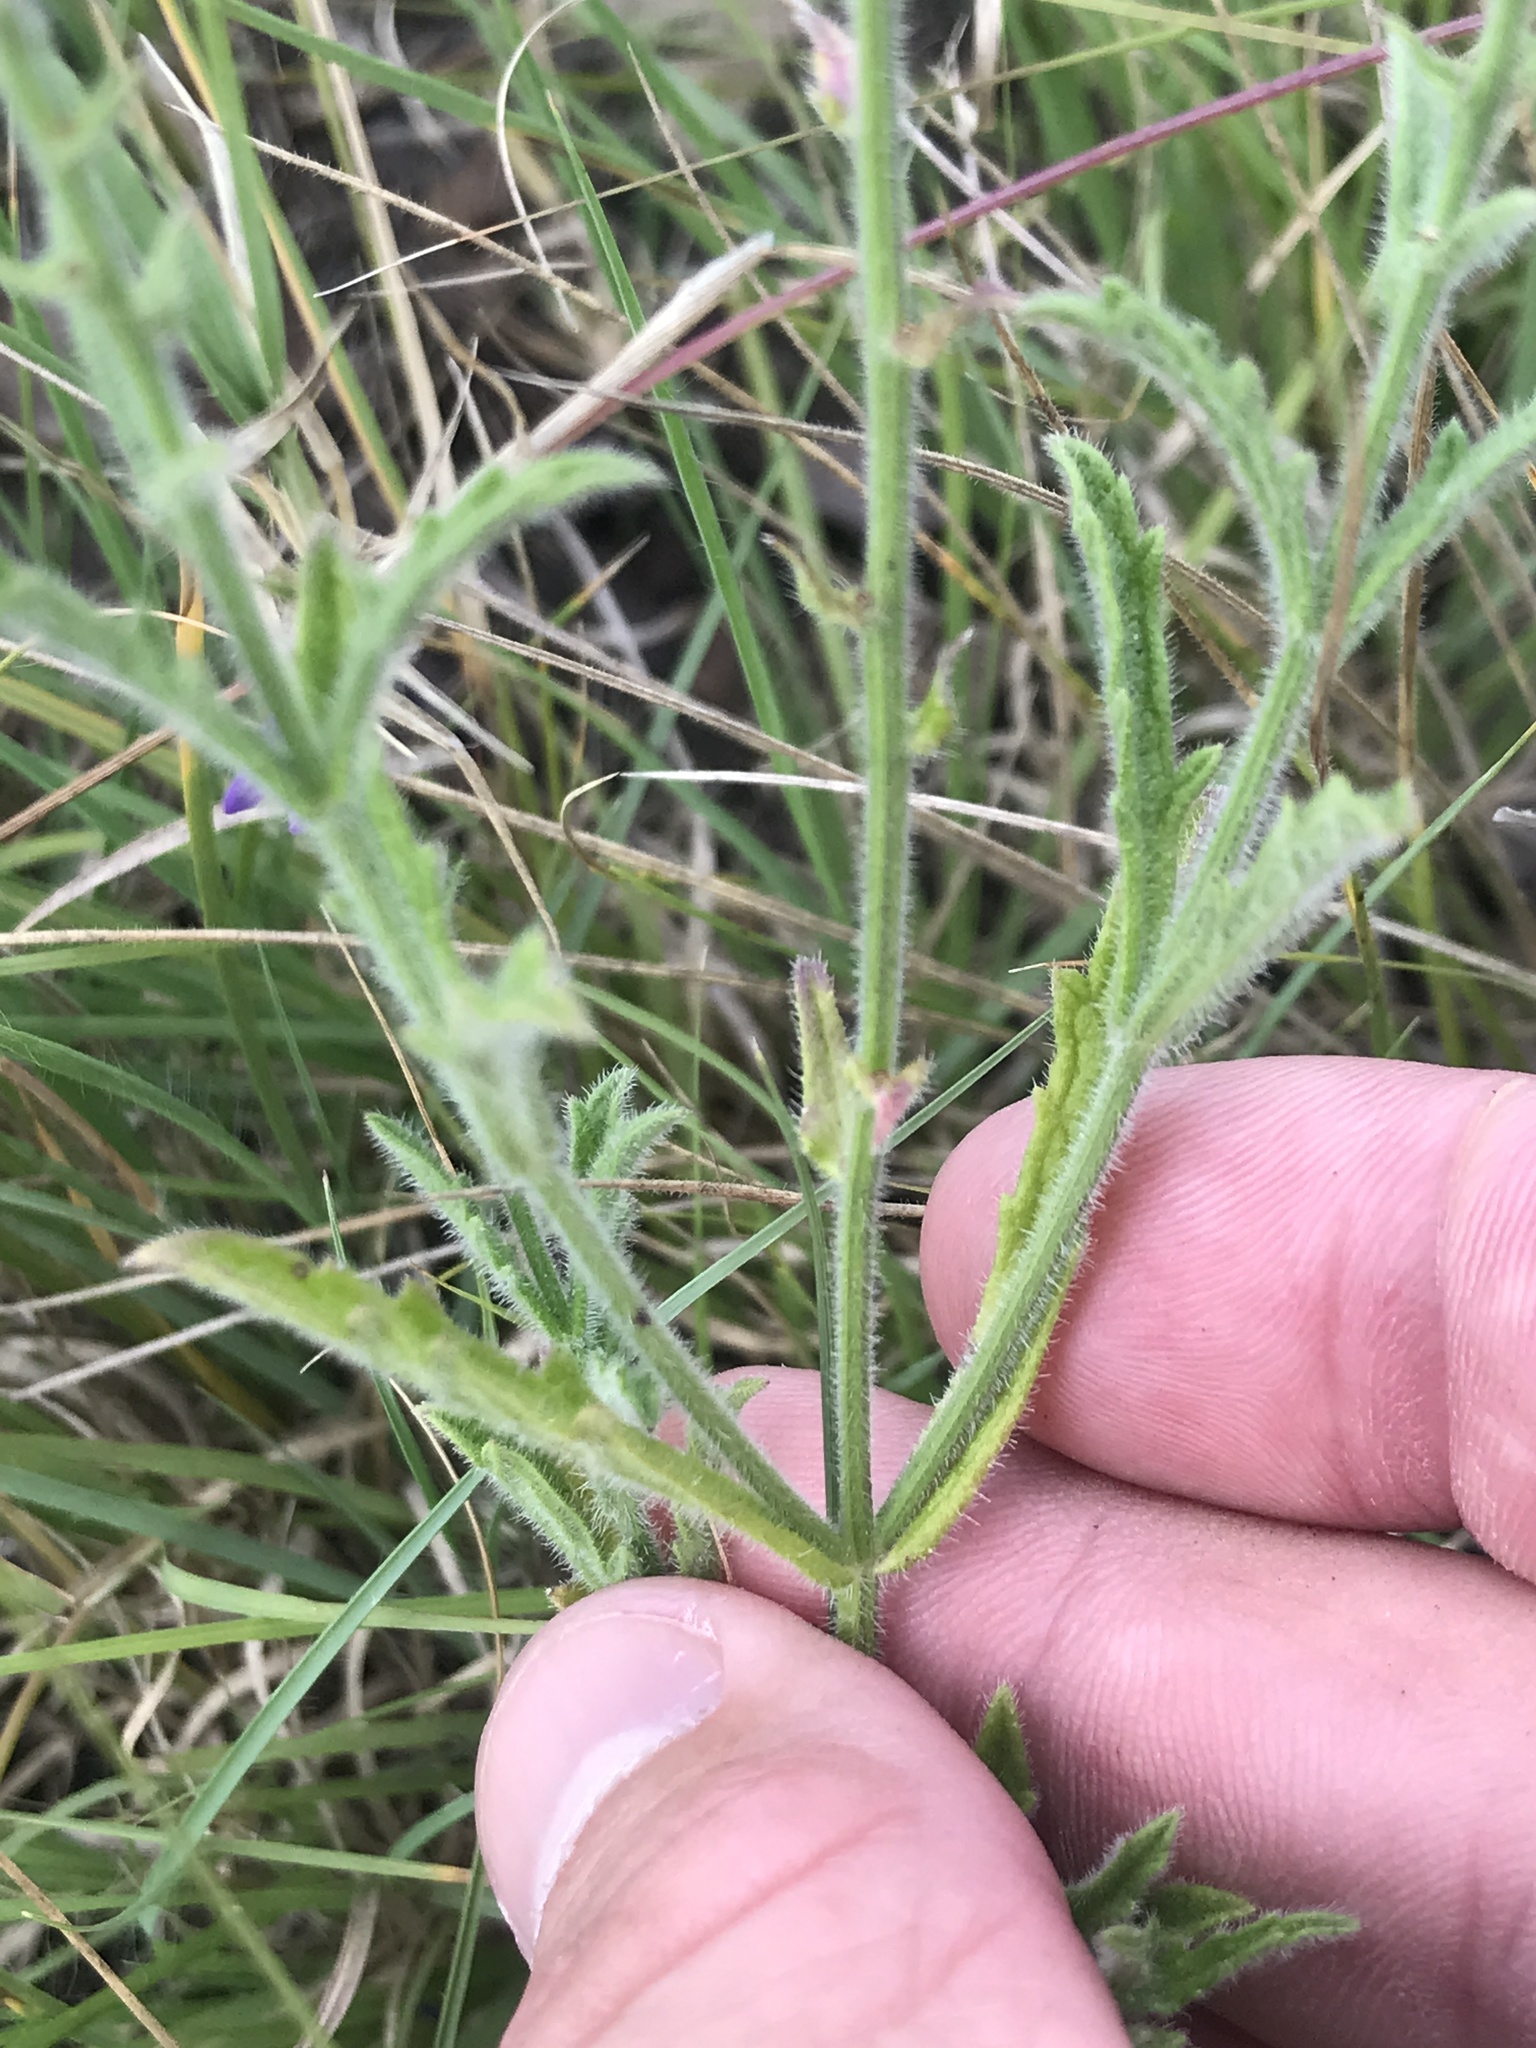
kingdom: Plantae
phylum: Tracheophyta
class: Magnoliopsida
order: Lamiales
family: Verbenaceae
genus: Verbena
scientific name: Verbena canescens
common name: Gray vervain
